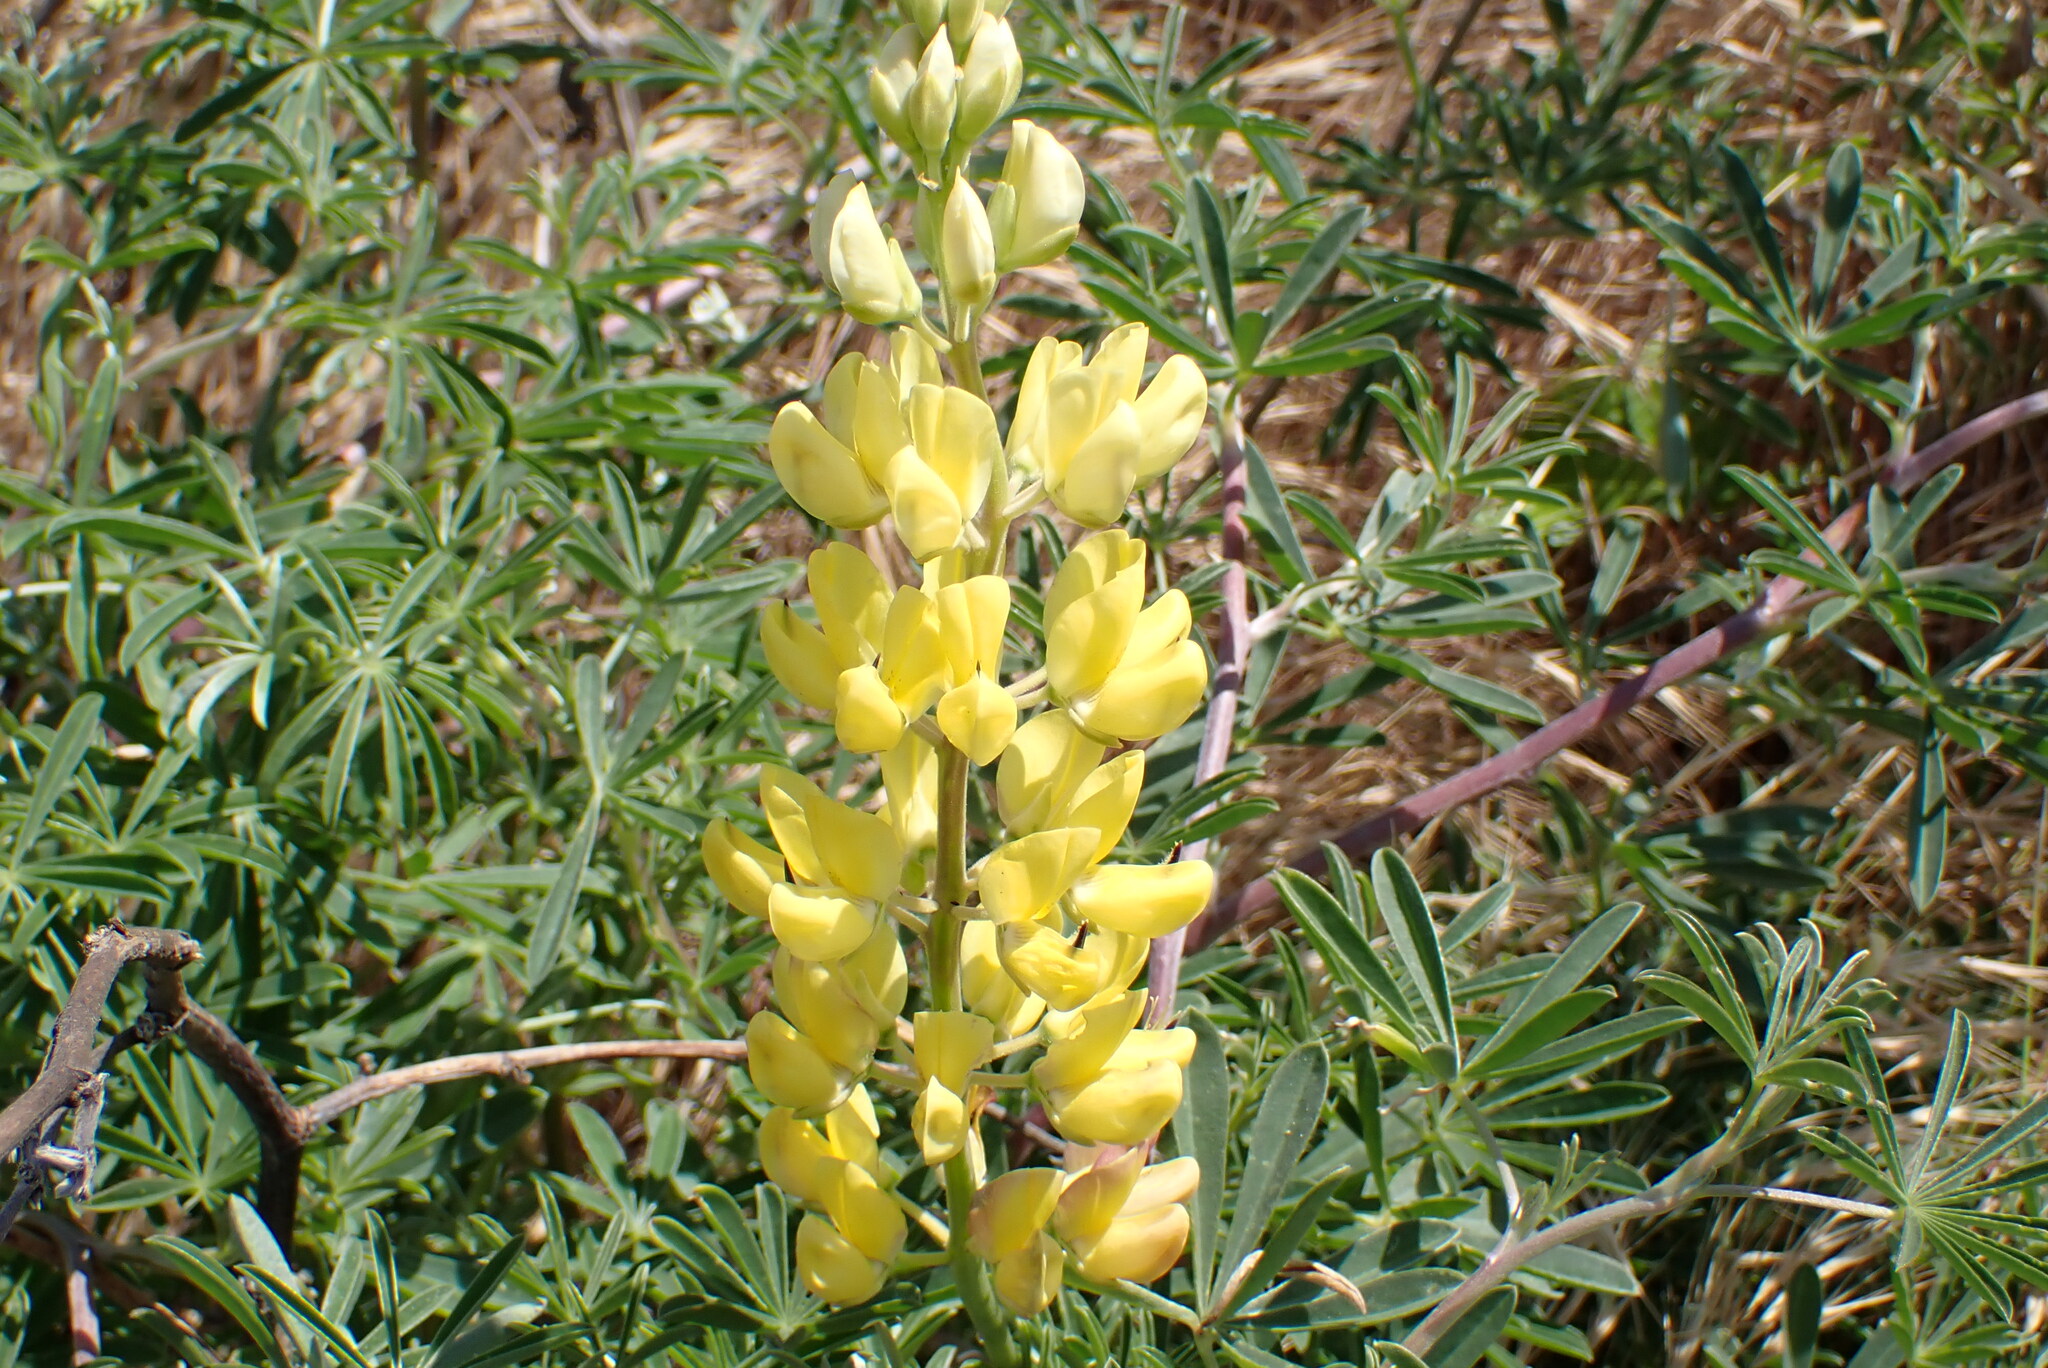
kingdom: Plantae
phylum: Tracheophyta
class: Magnoliopsida
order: Fabales
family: Fabaceae
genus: Lupinus
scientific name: Lupinus arboreus
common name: Yellow bush lupine
